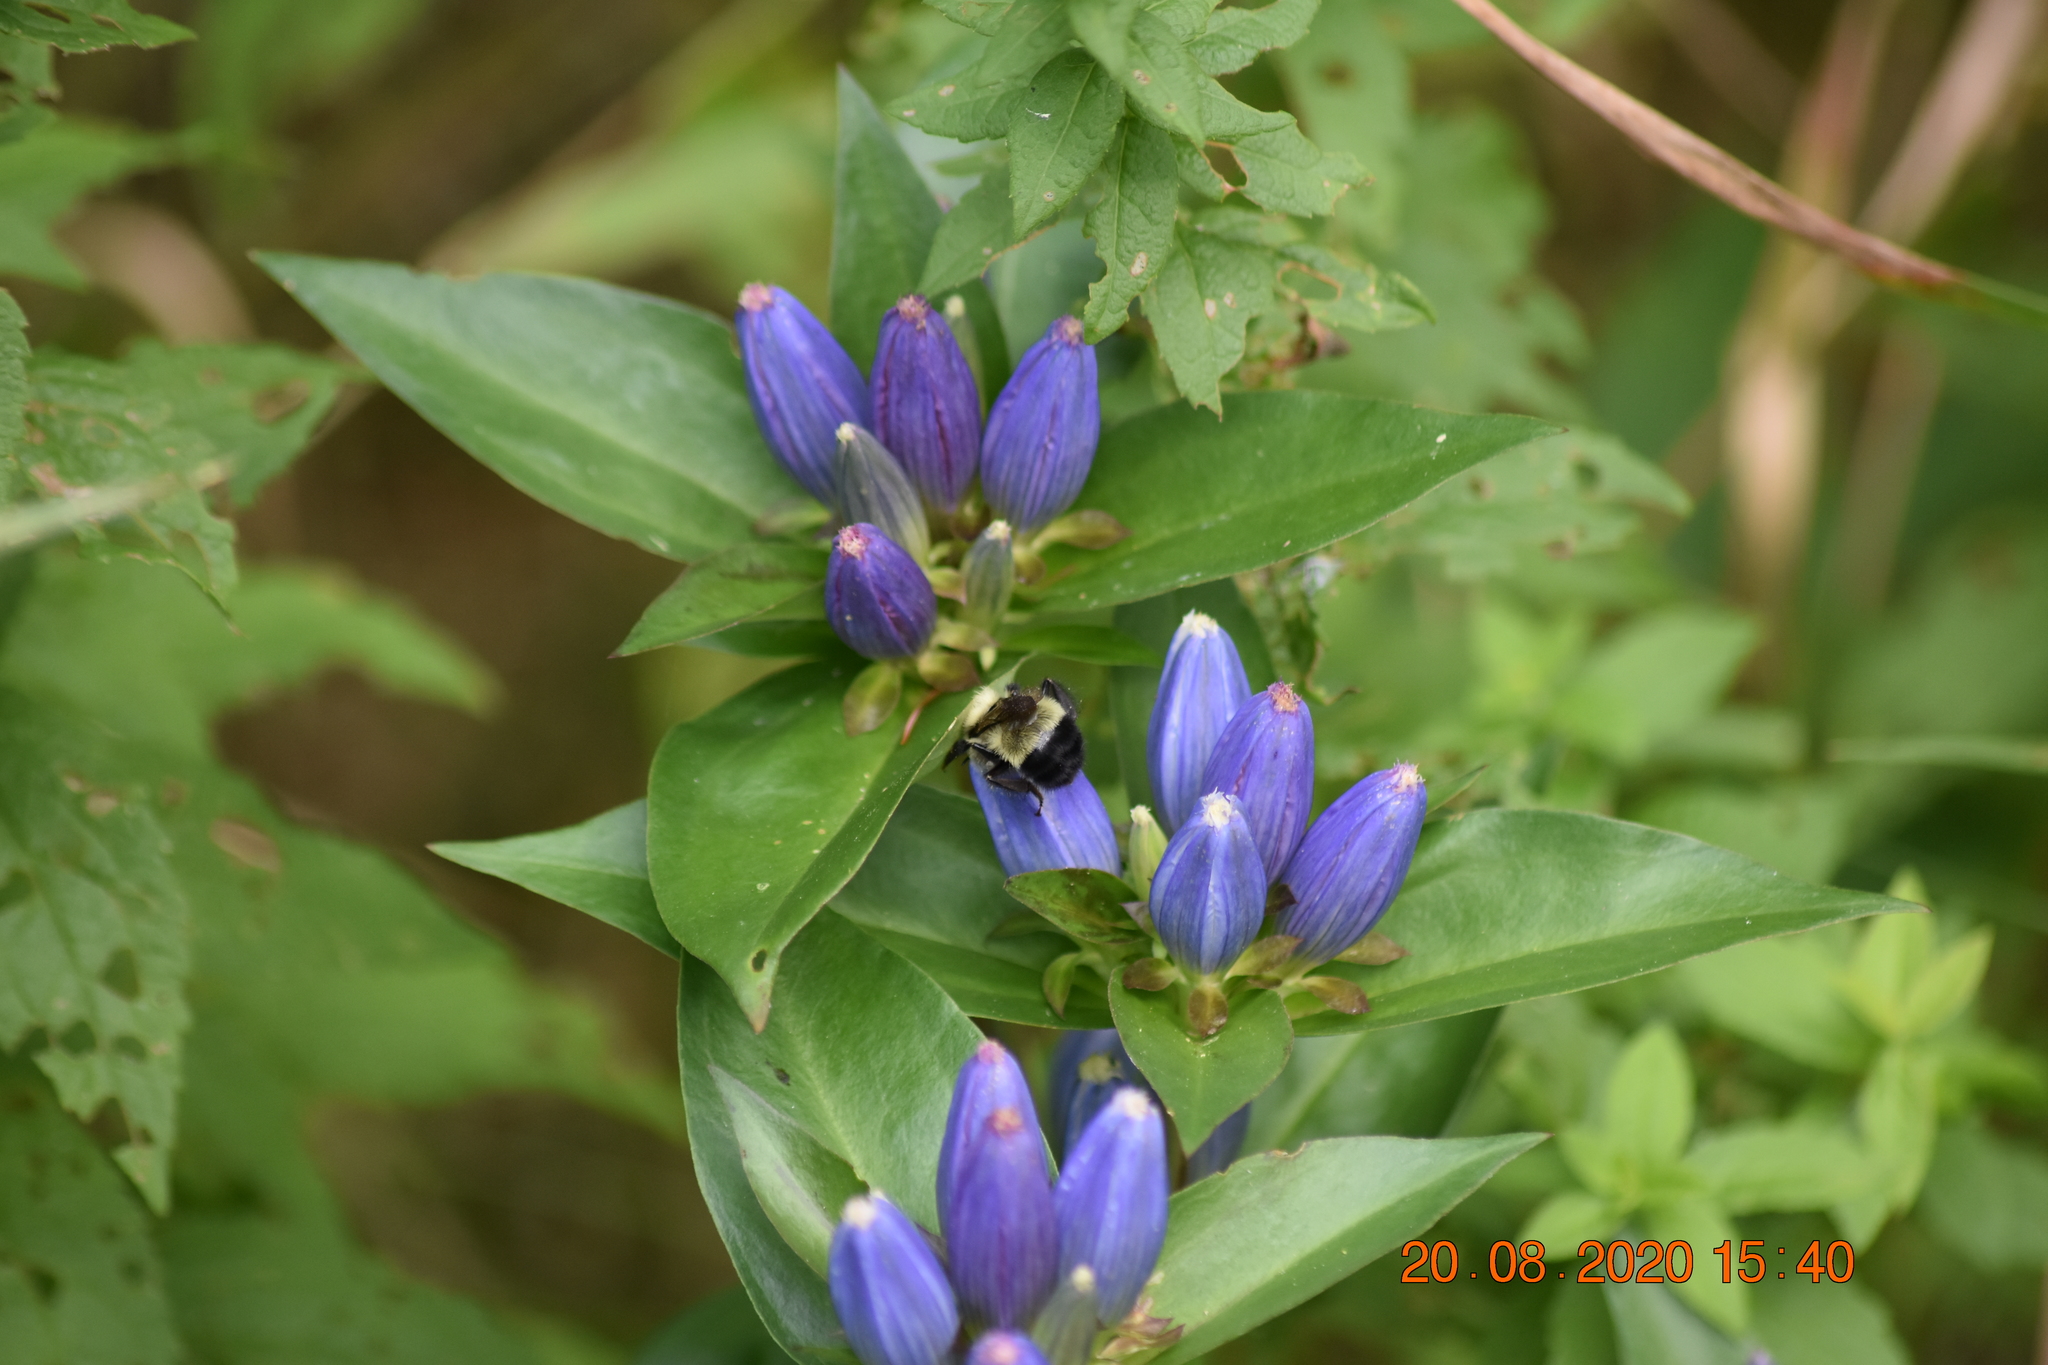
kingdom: Animalia
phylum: Arthropoda
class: Insecta
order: Hymenoptera
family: Apidae
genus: Pyrobombus
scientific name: Pyrobombus
